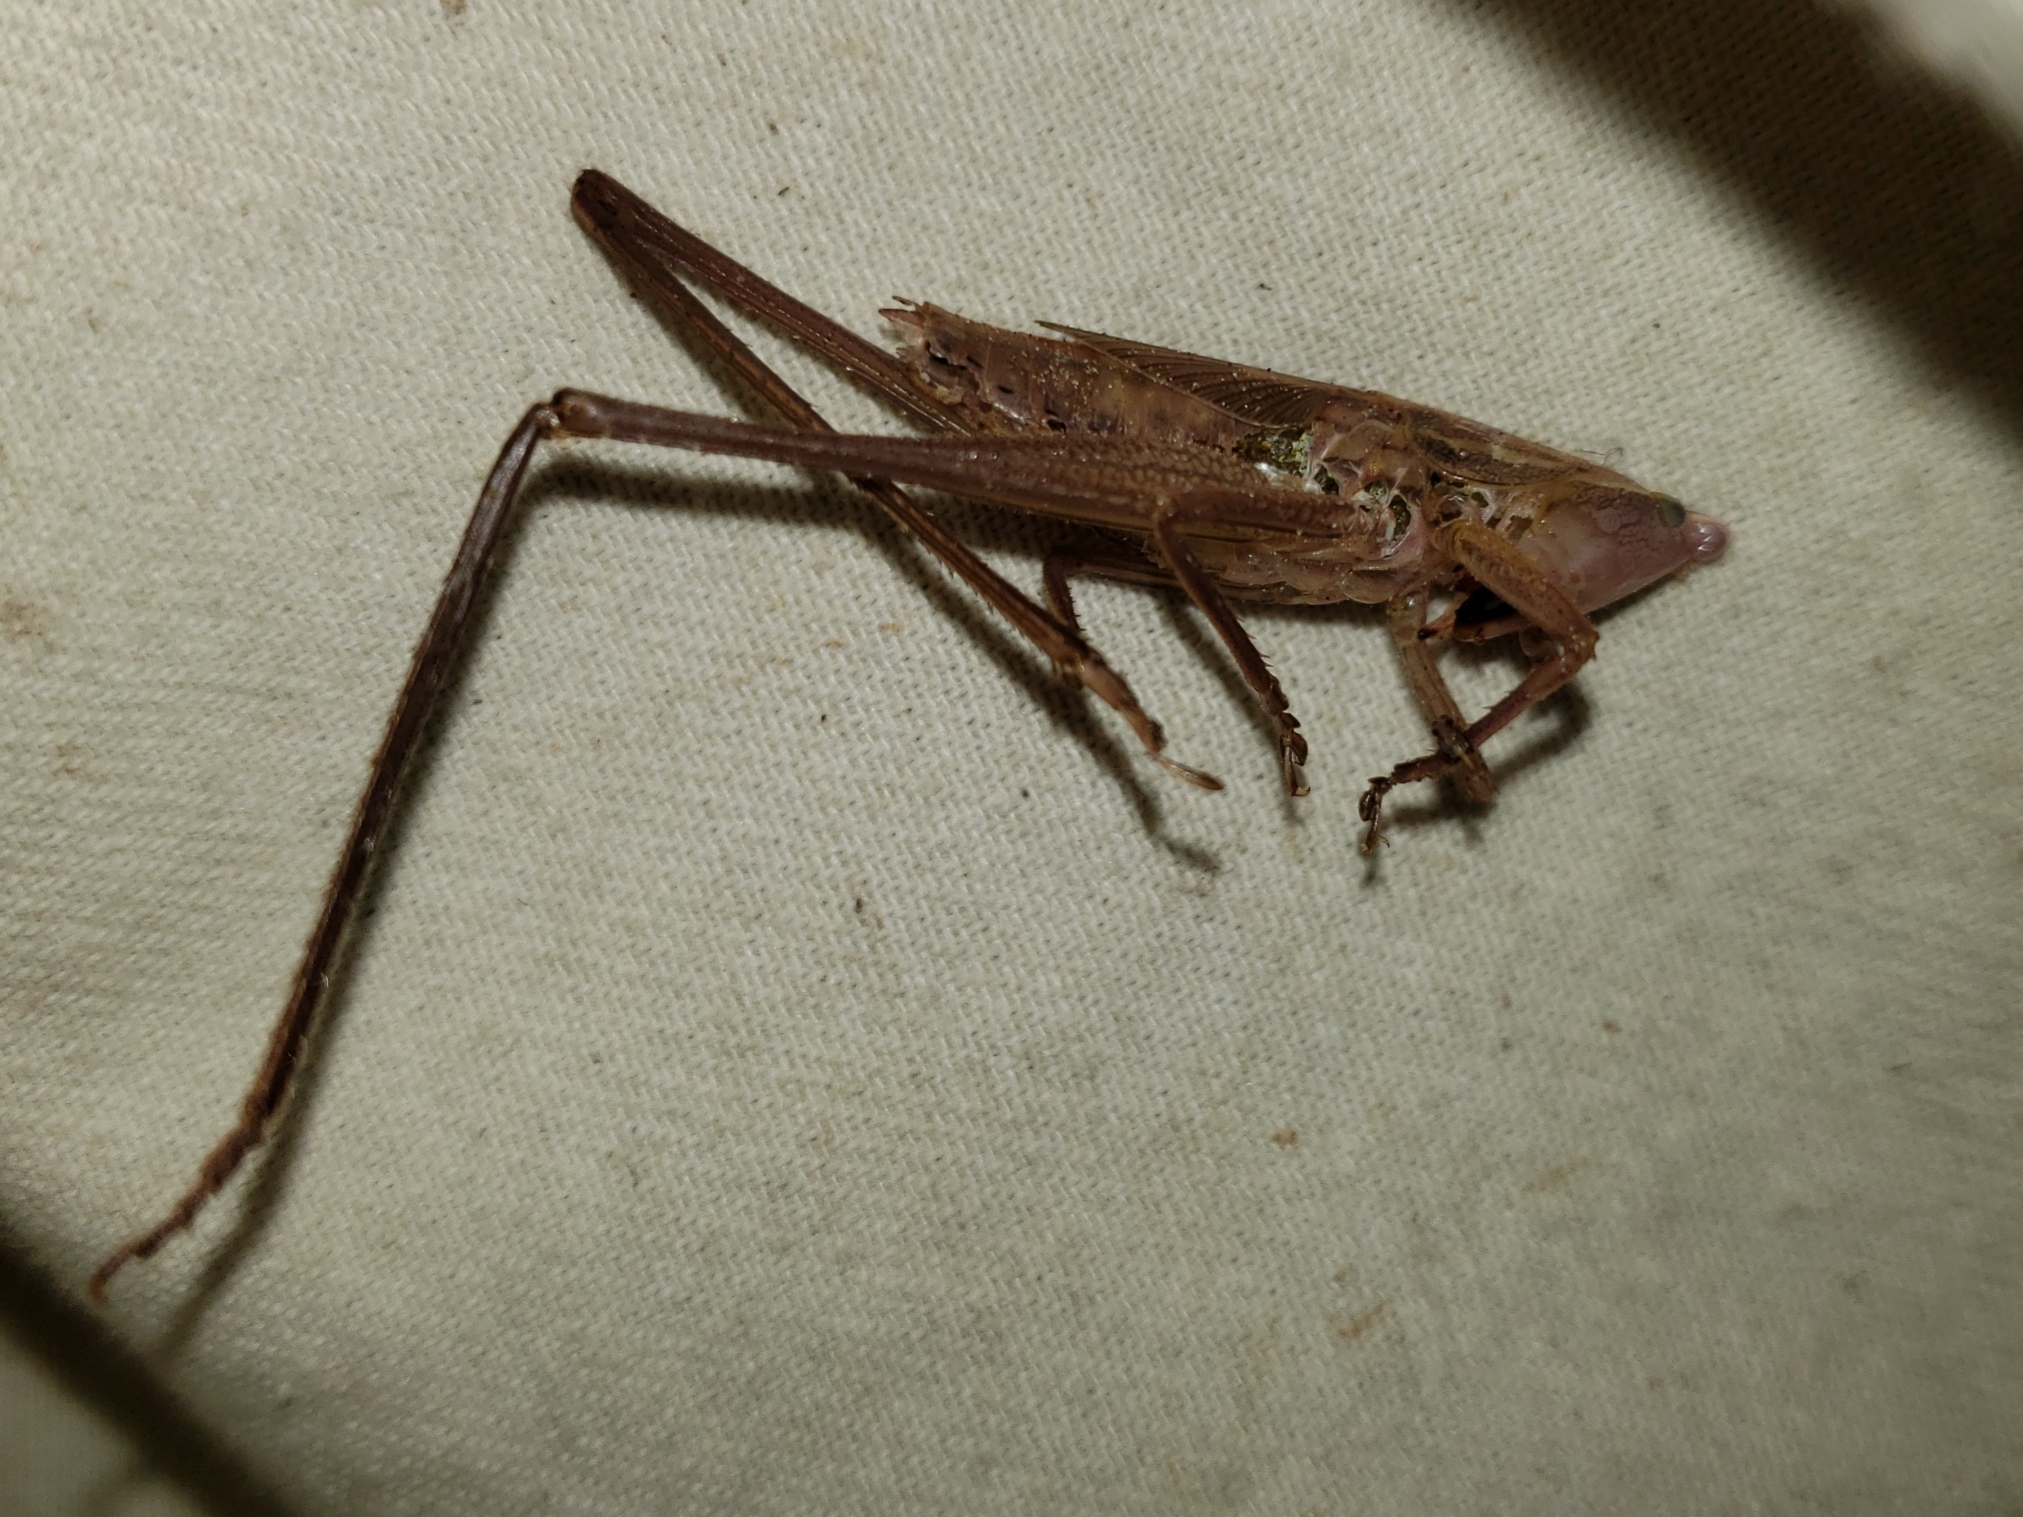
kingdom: Animalia
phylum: Arthropoda
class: Insecta
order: Orthoptera
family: Tettigoniidae
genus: Bucrates
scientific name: Bucrates malivolans
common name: Cattail conehead
